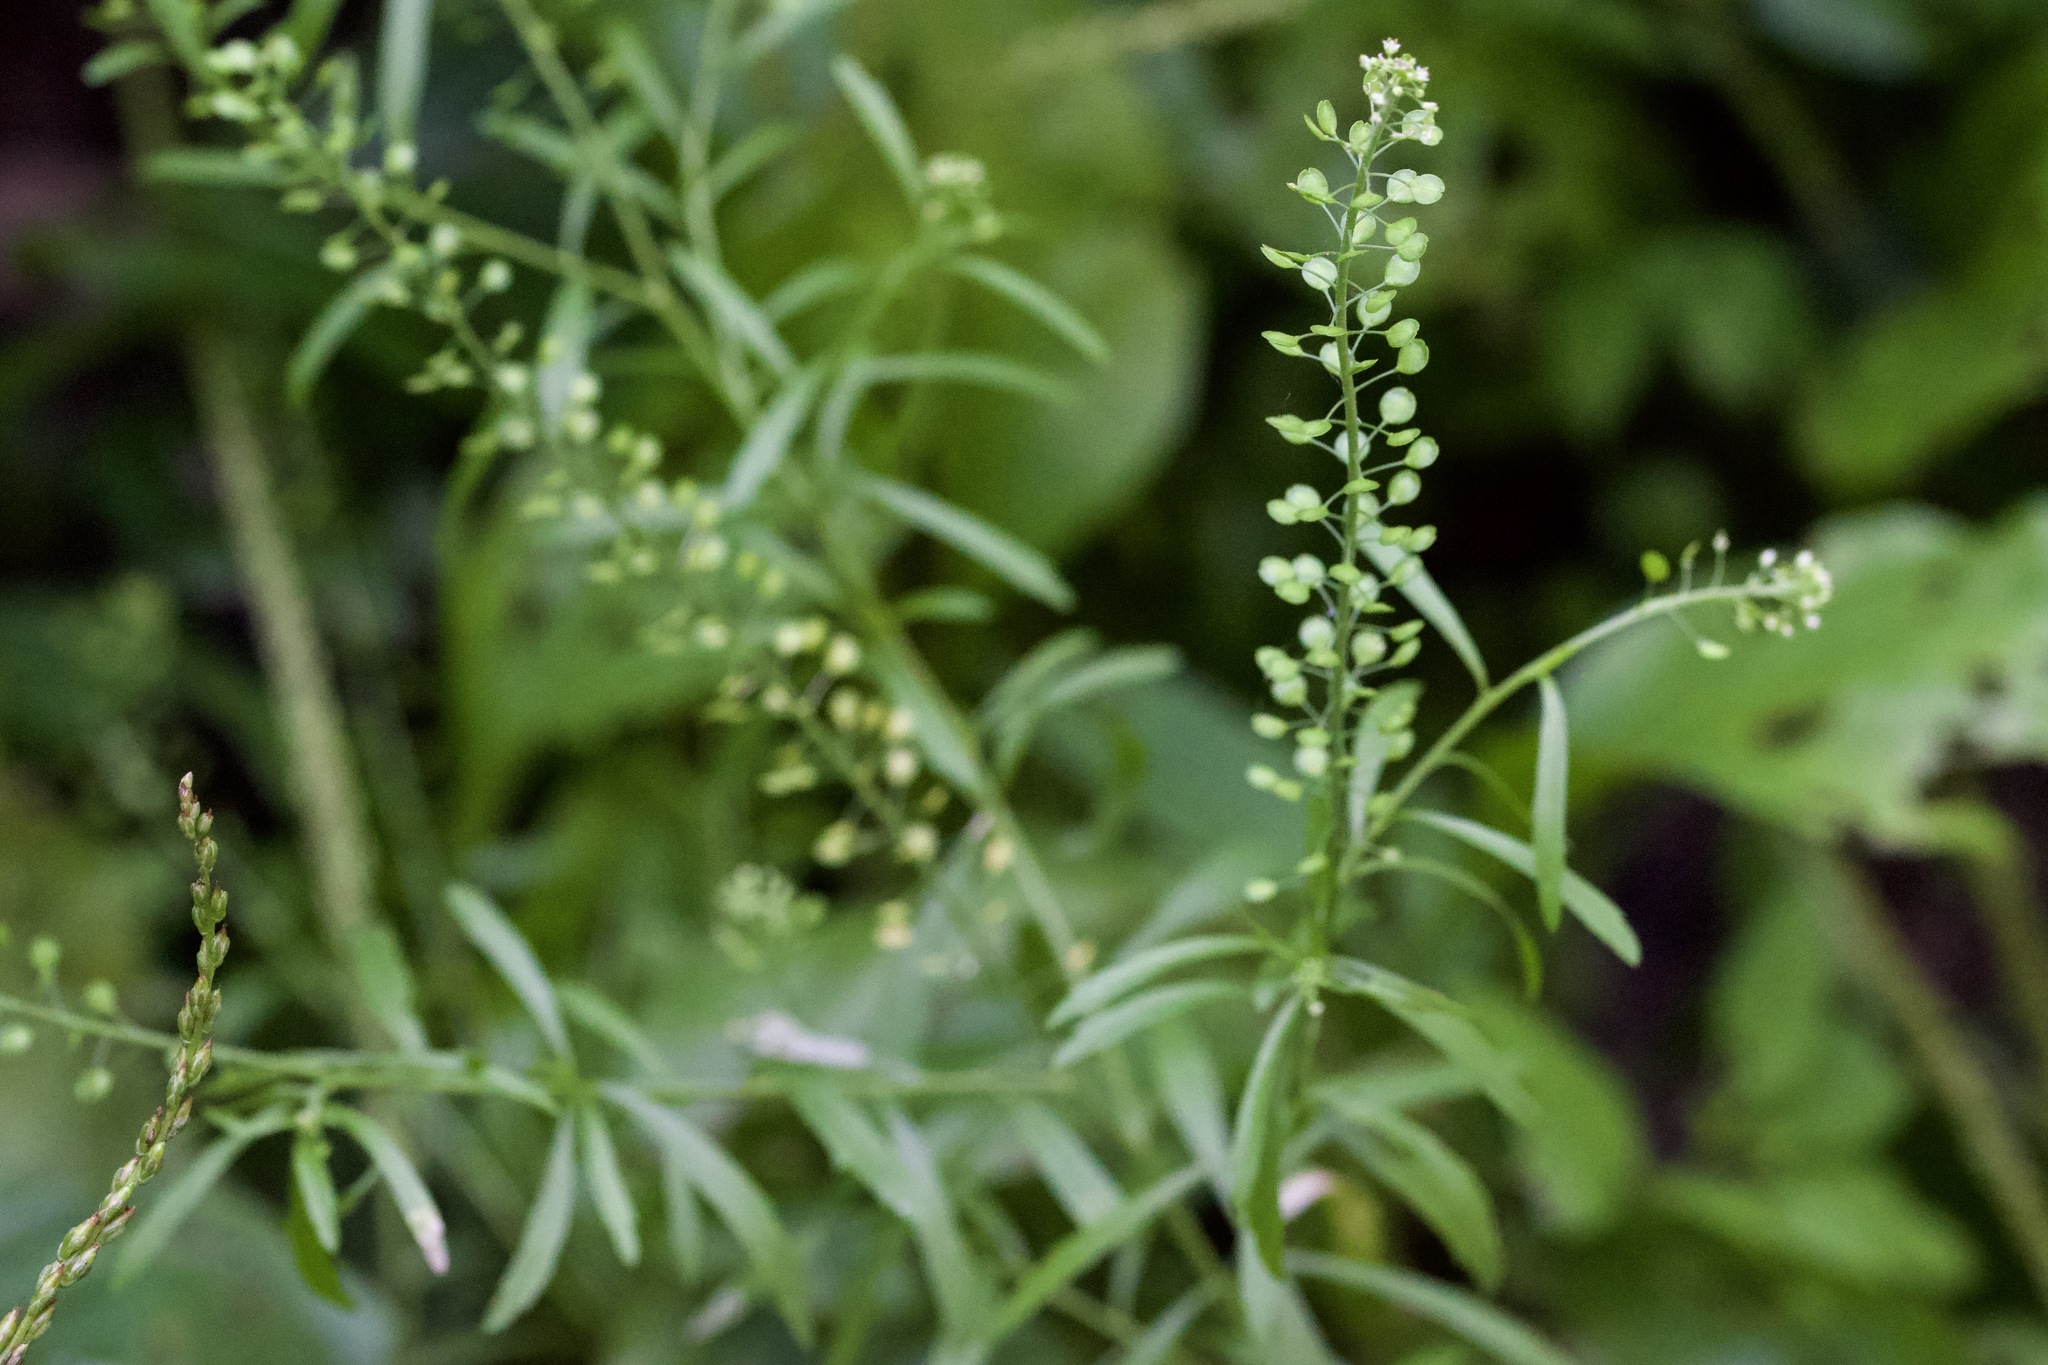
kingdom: Plantae
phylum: Tracheophyta
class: Magnoliopsida
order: Brassicales
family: Brassicaceae
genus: Lepidium
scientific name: Lepidium virginicum
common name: Least pepperwort
